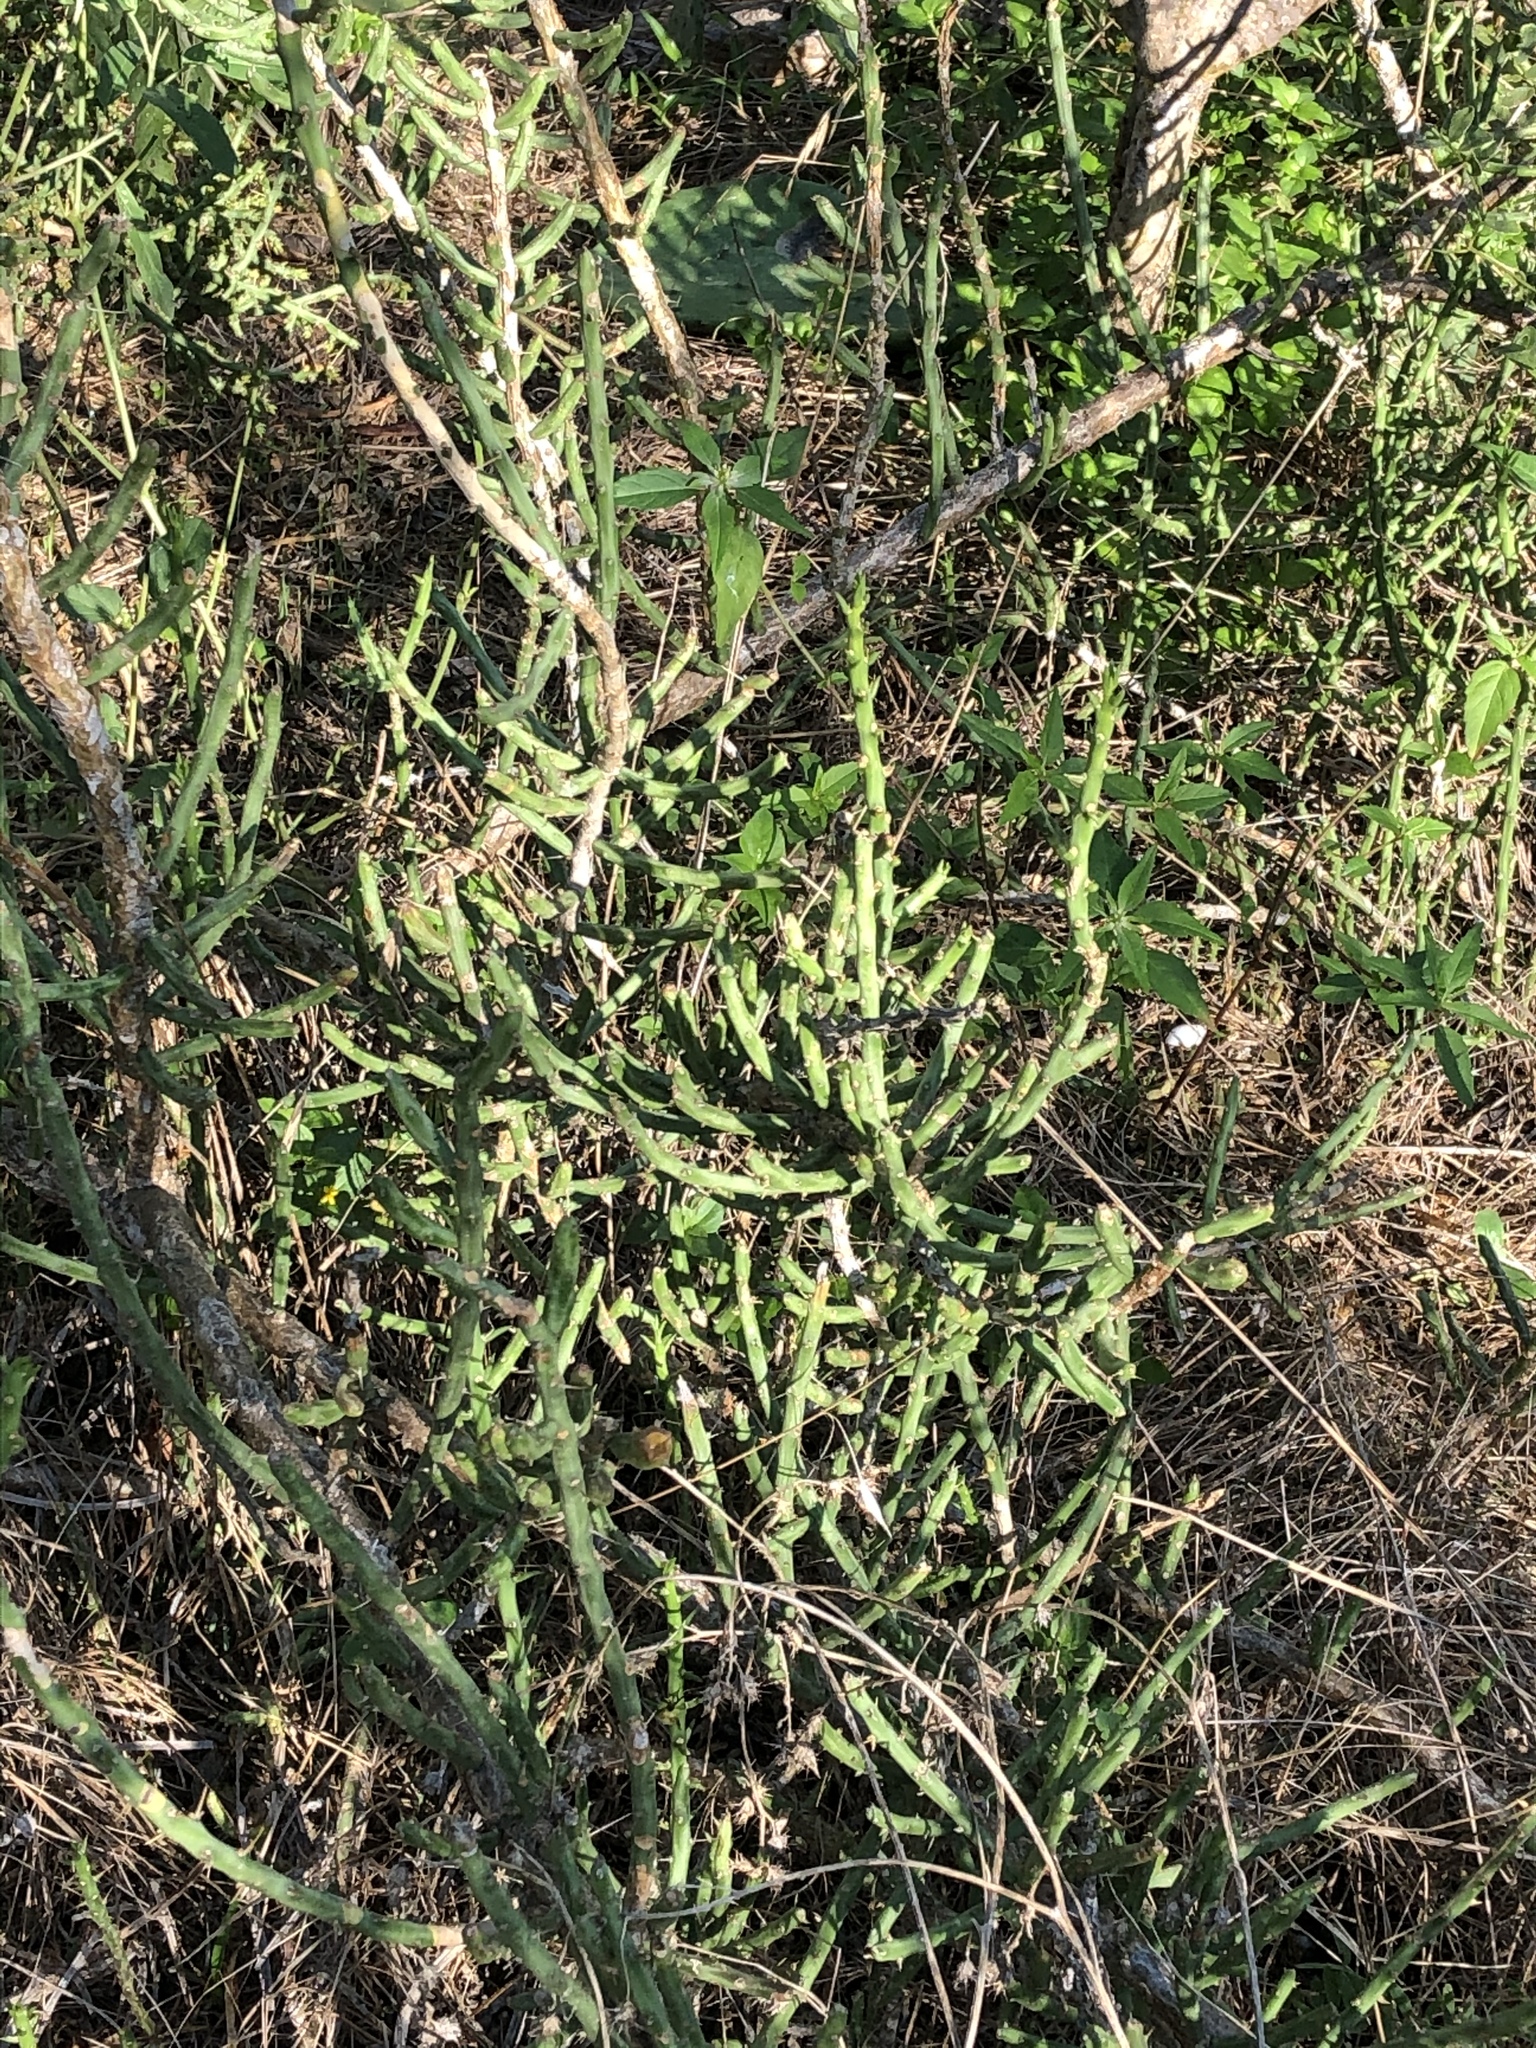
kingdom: Plantae
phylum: Tracheophyta
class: Magnoliopsida
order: Caryophyllales
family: Cactaceae
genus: Cylindropuntia
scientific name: Cylindropuntia leptocaulis
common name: Christmas cactus
